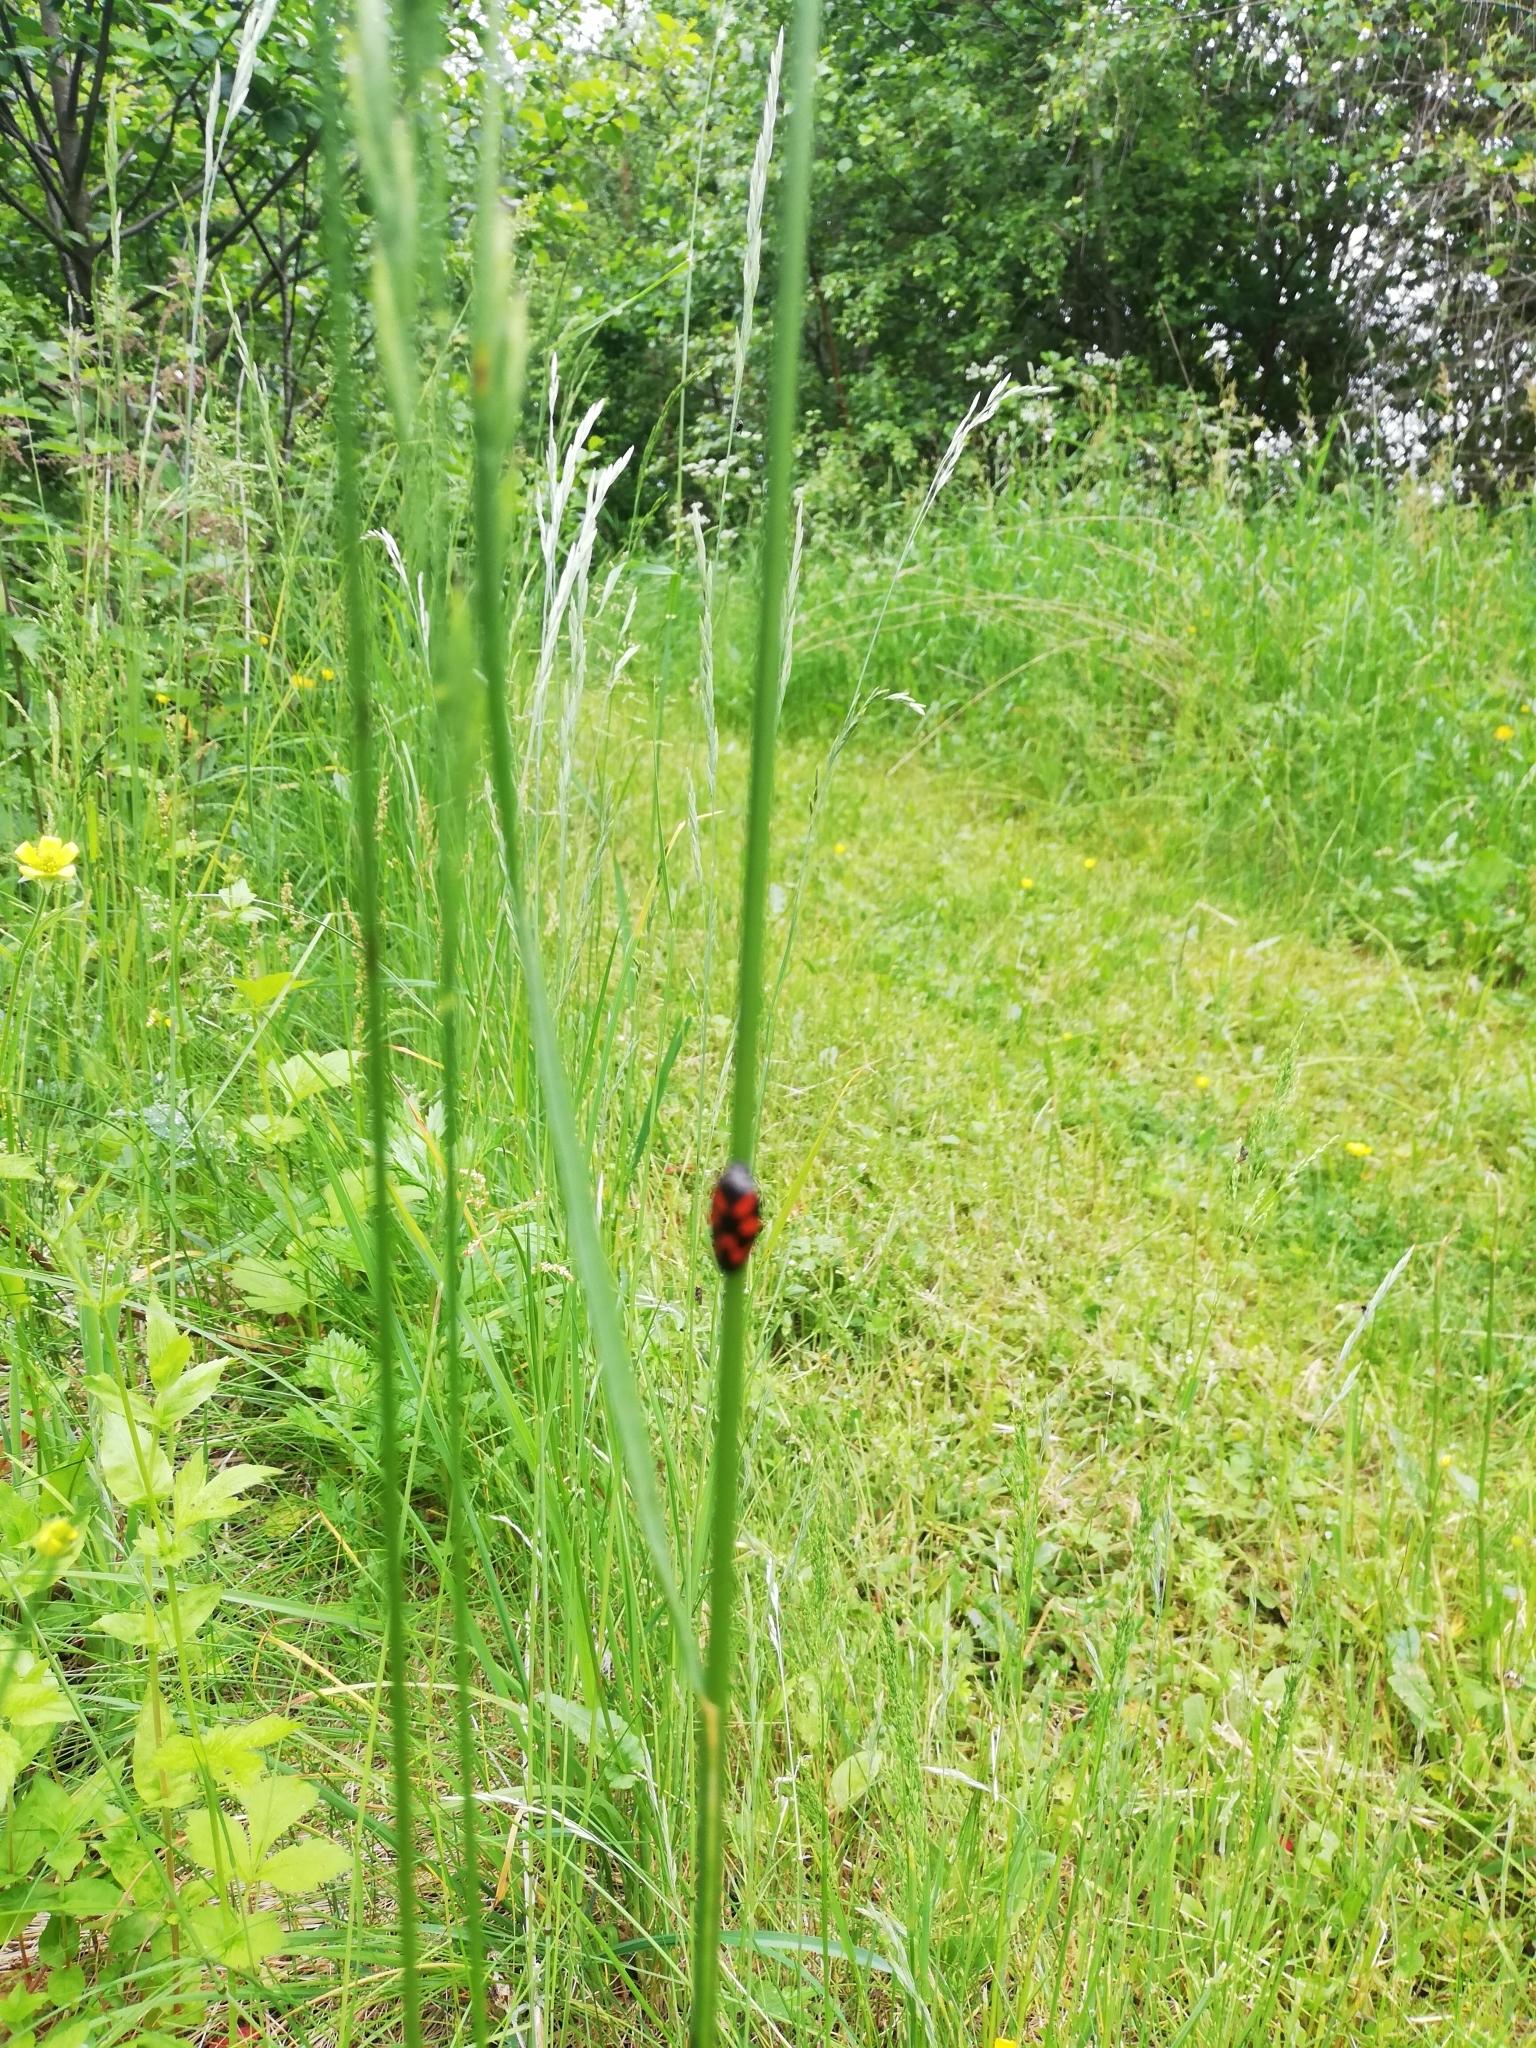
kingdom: Animalia
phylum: Arthropoda
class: Insecta
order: Hemiptera
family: Cercopidae
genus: Cercopis
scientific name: Cercopis vulnerata
